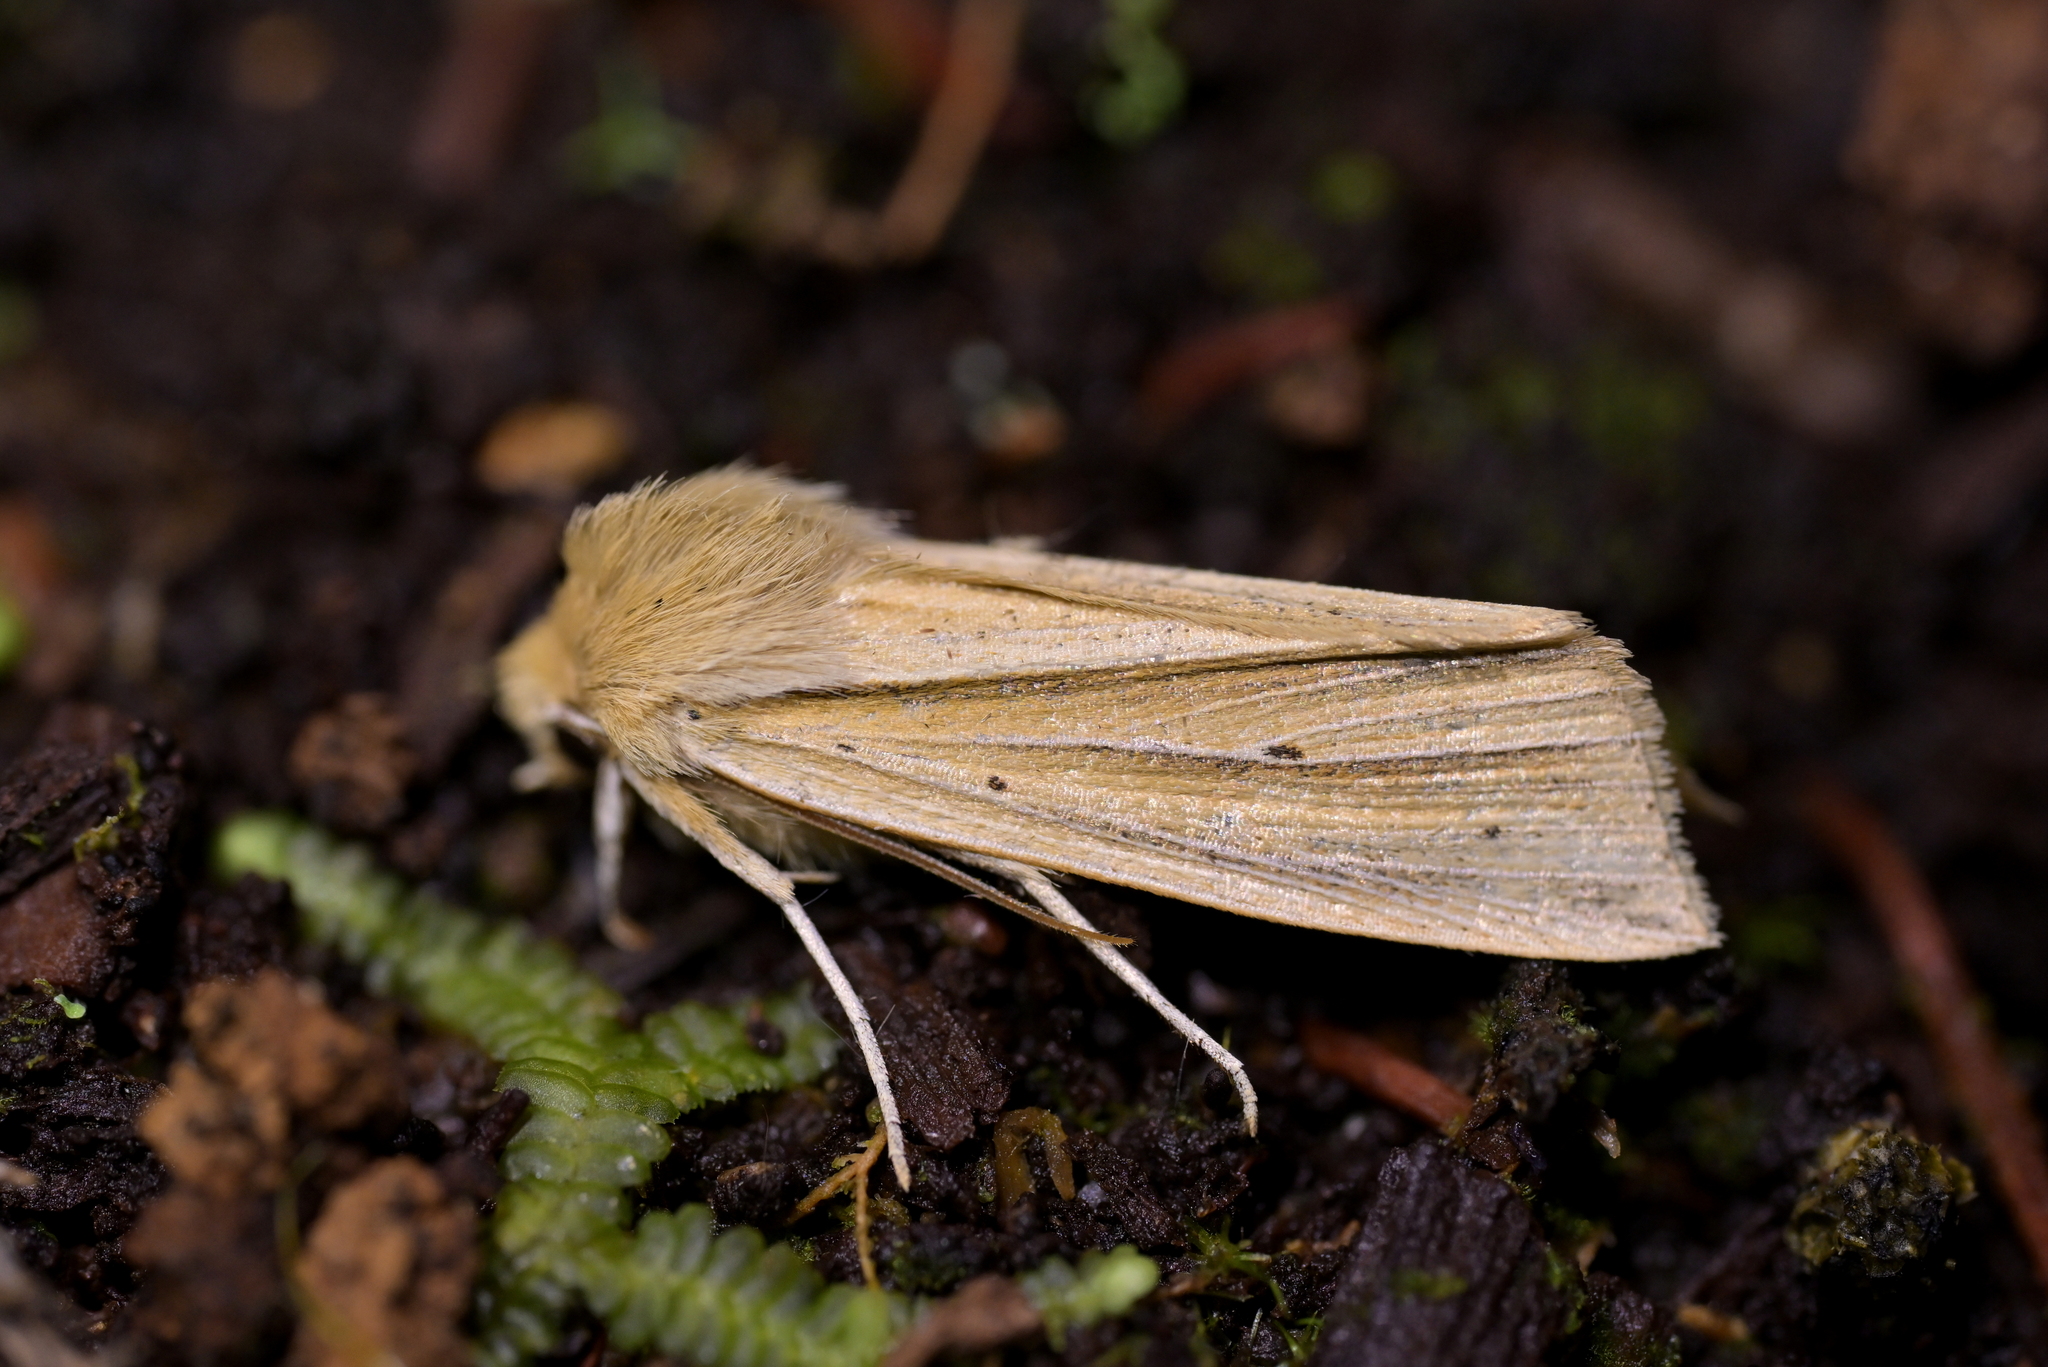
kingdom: Animalia
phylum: Arthropoda
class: Insecta
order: Lepidoptera
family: Noctuidae
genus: Ichneutica
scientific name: Ichneutica sulcana
